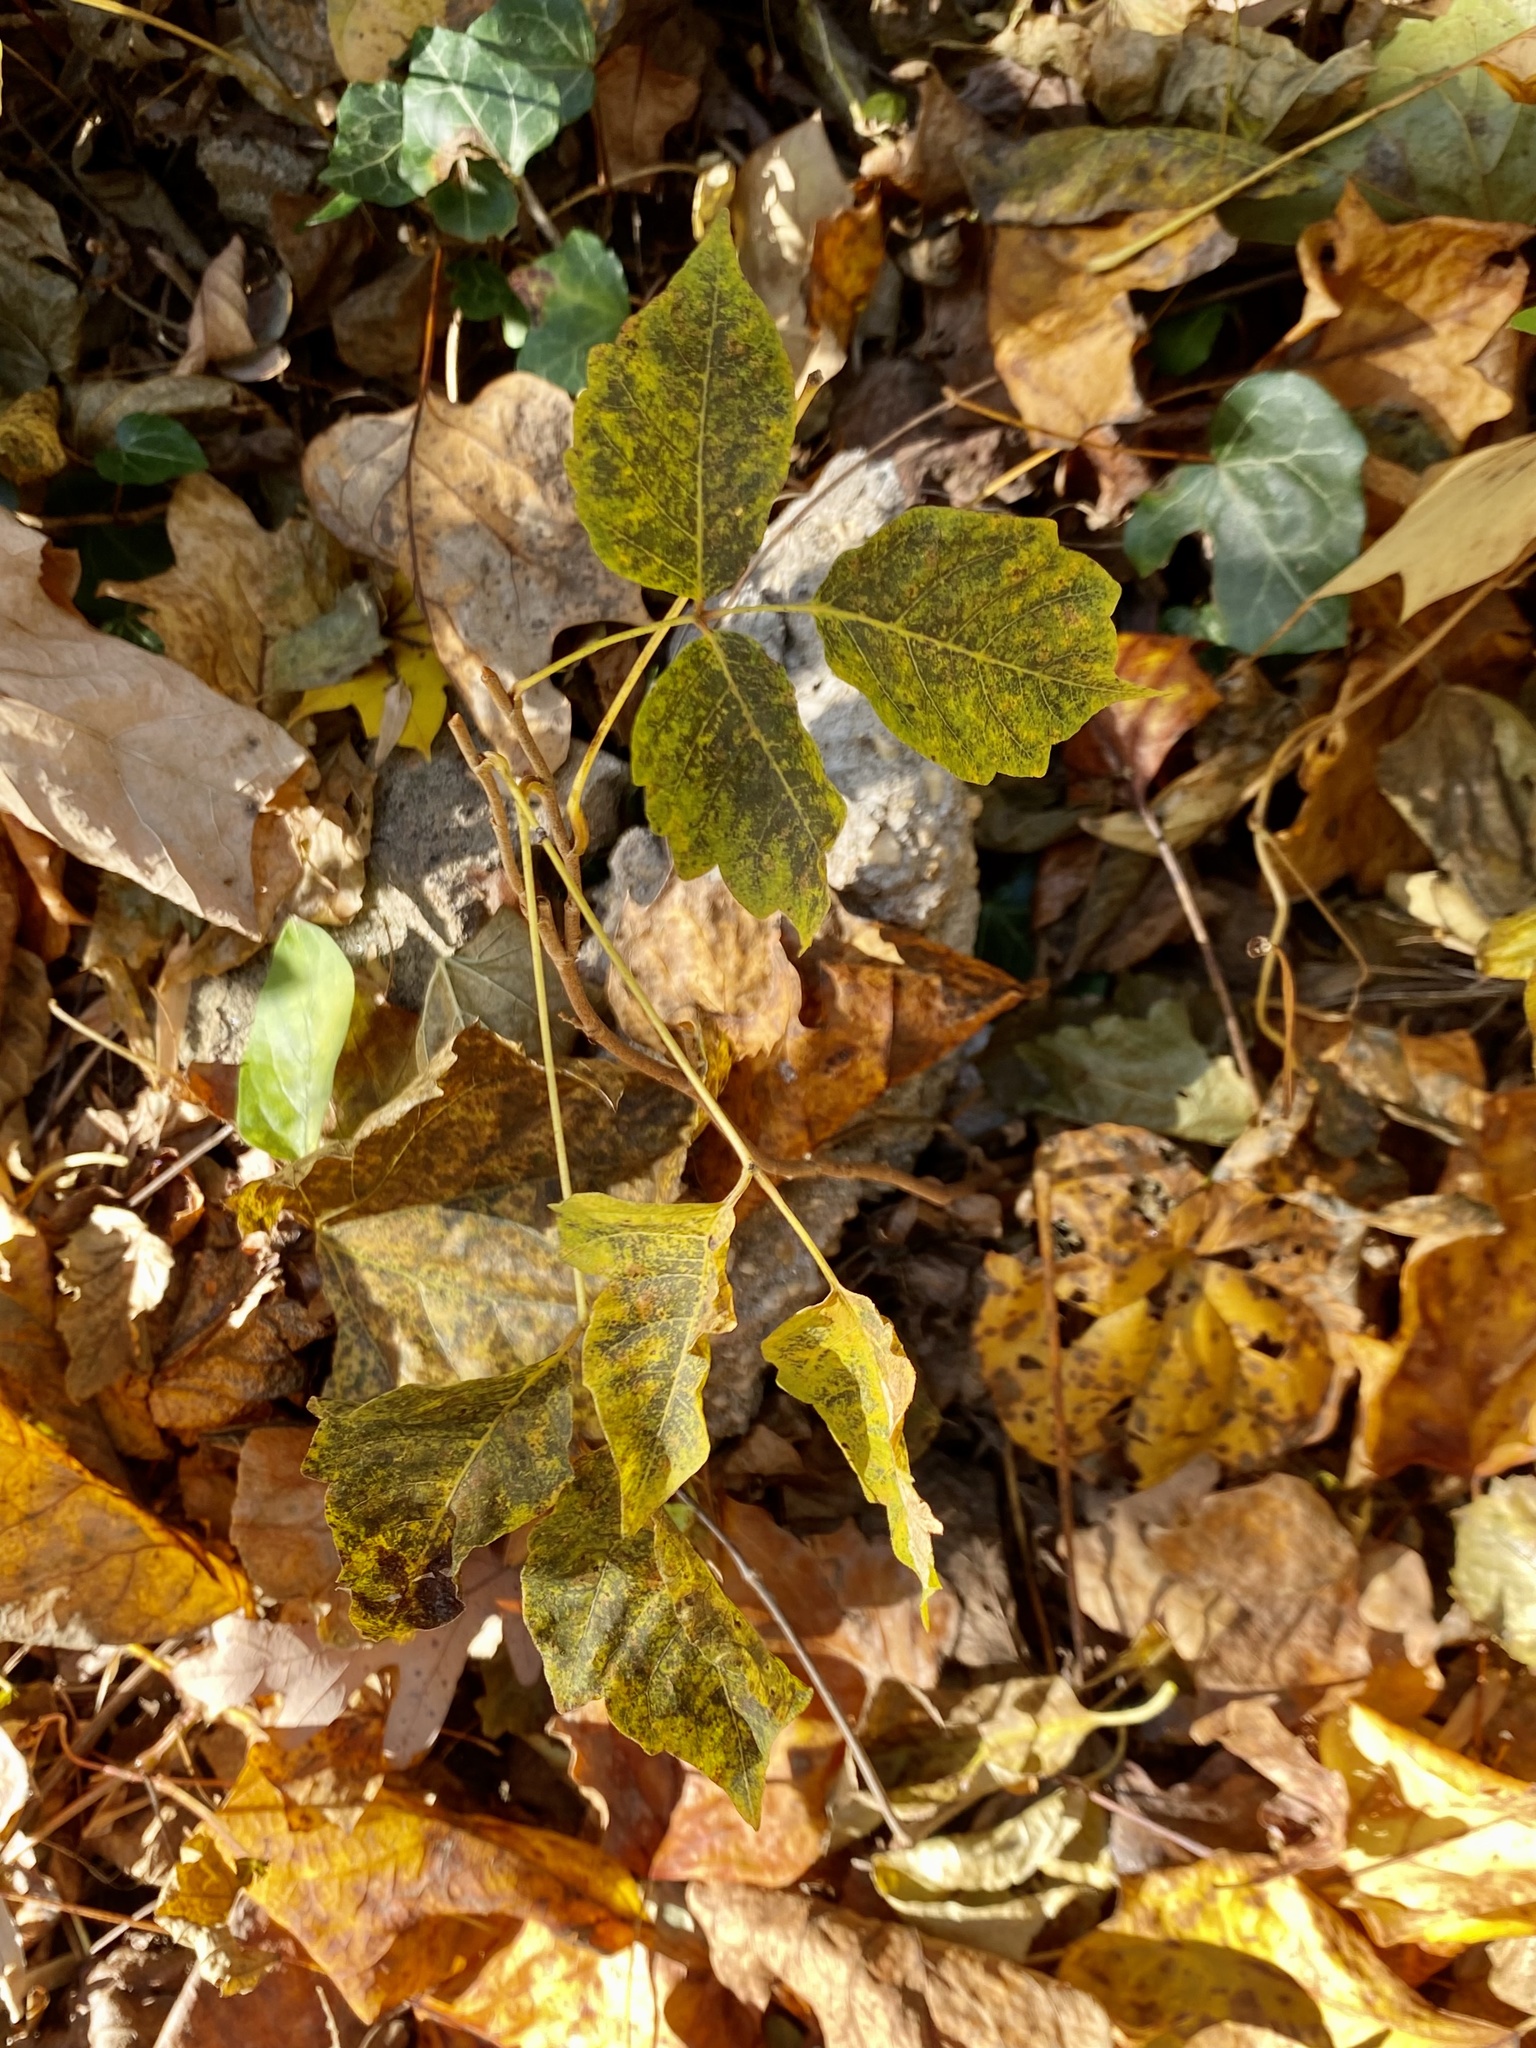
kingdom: Plantae
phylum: Tracheophyta
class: Magnoliopsida
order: Sapindales
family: Anacardiaceae
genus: Toxicodendron
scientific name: Toxicodendron radicans
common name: Poison ivy
